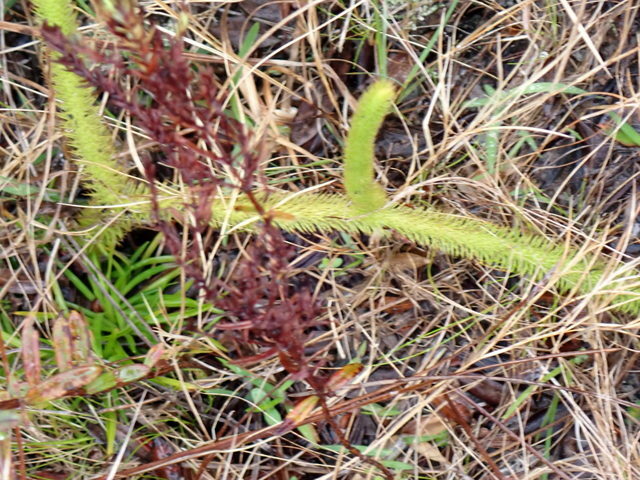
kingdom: Plantae
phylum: Tracheophyta
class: Lycopodiopsida
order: Lycopodiales
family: Lycopodiaceae
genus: Lycopodiella
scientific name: Lycopodiella alopecuroides
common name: Foxtail clubmoss
